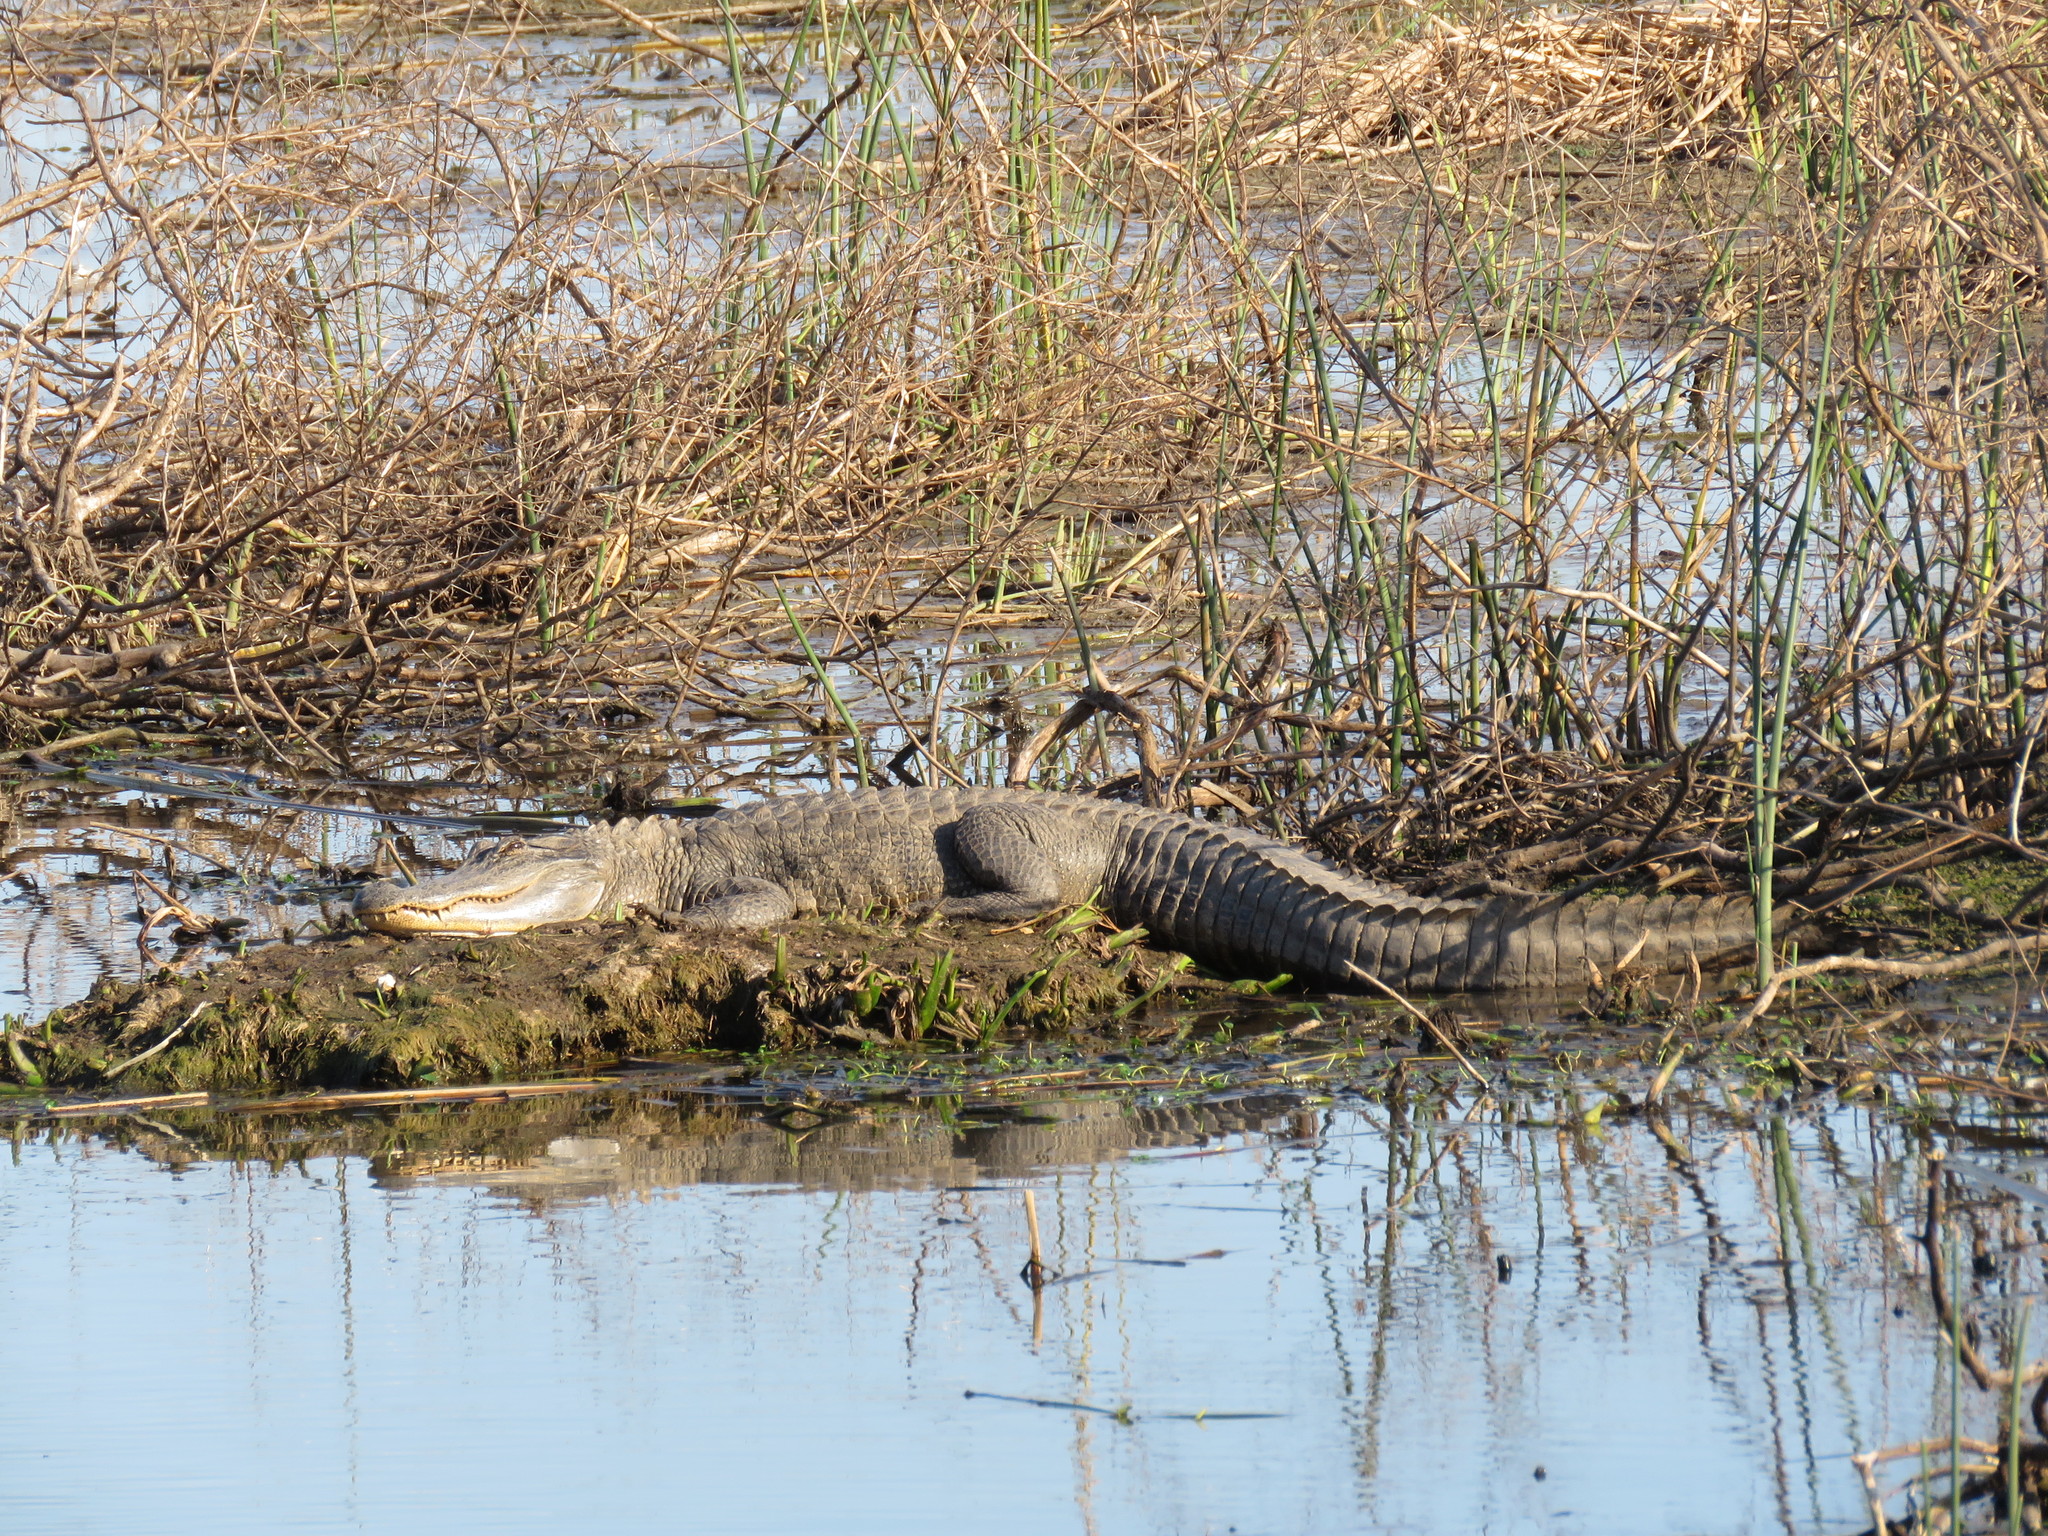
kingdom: Animalia
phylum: Chordata
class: Crocodylia
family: Alligatoridae
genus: Alligator
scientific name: Alligator mississippiensis
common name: American alligator
